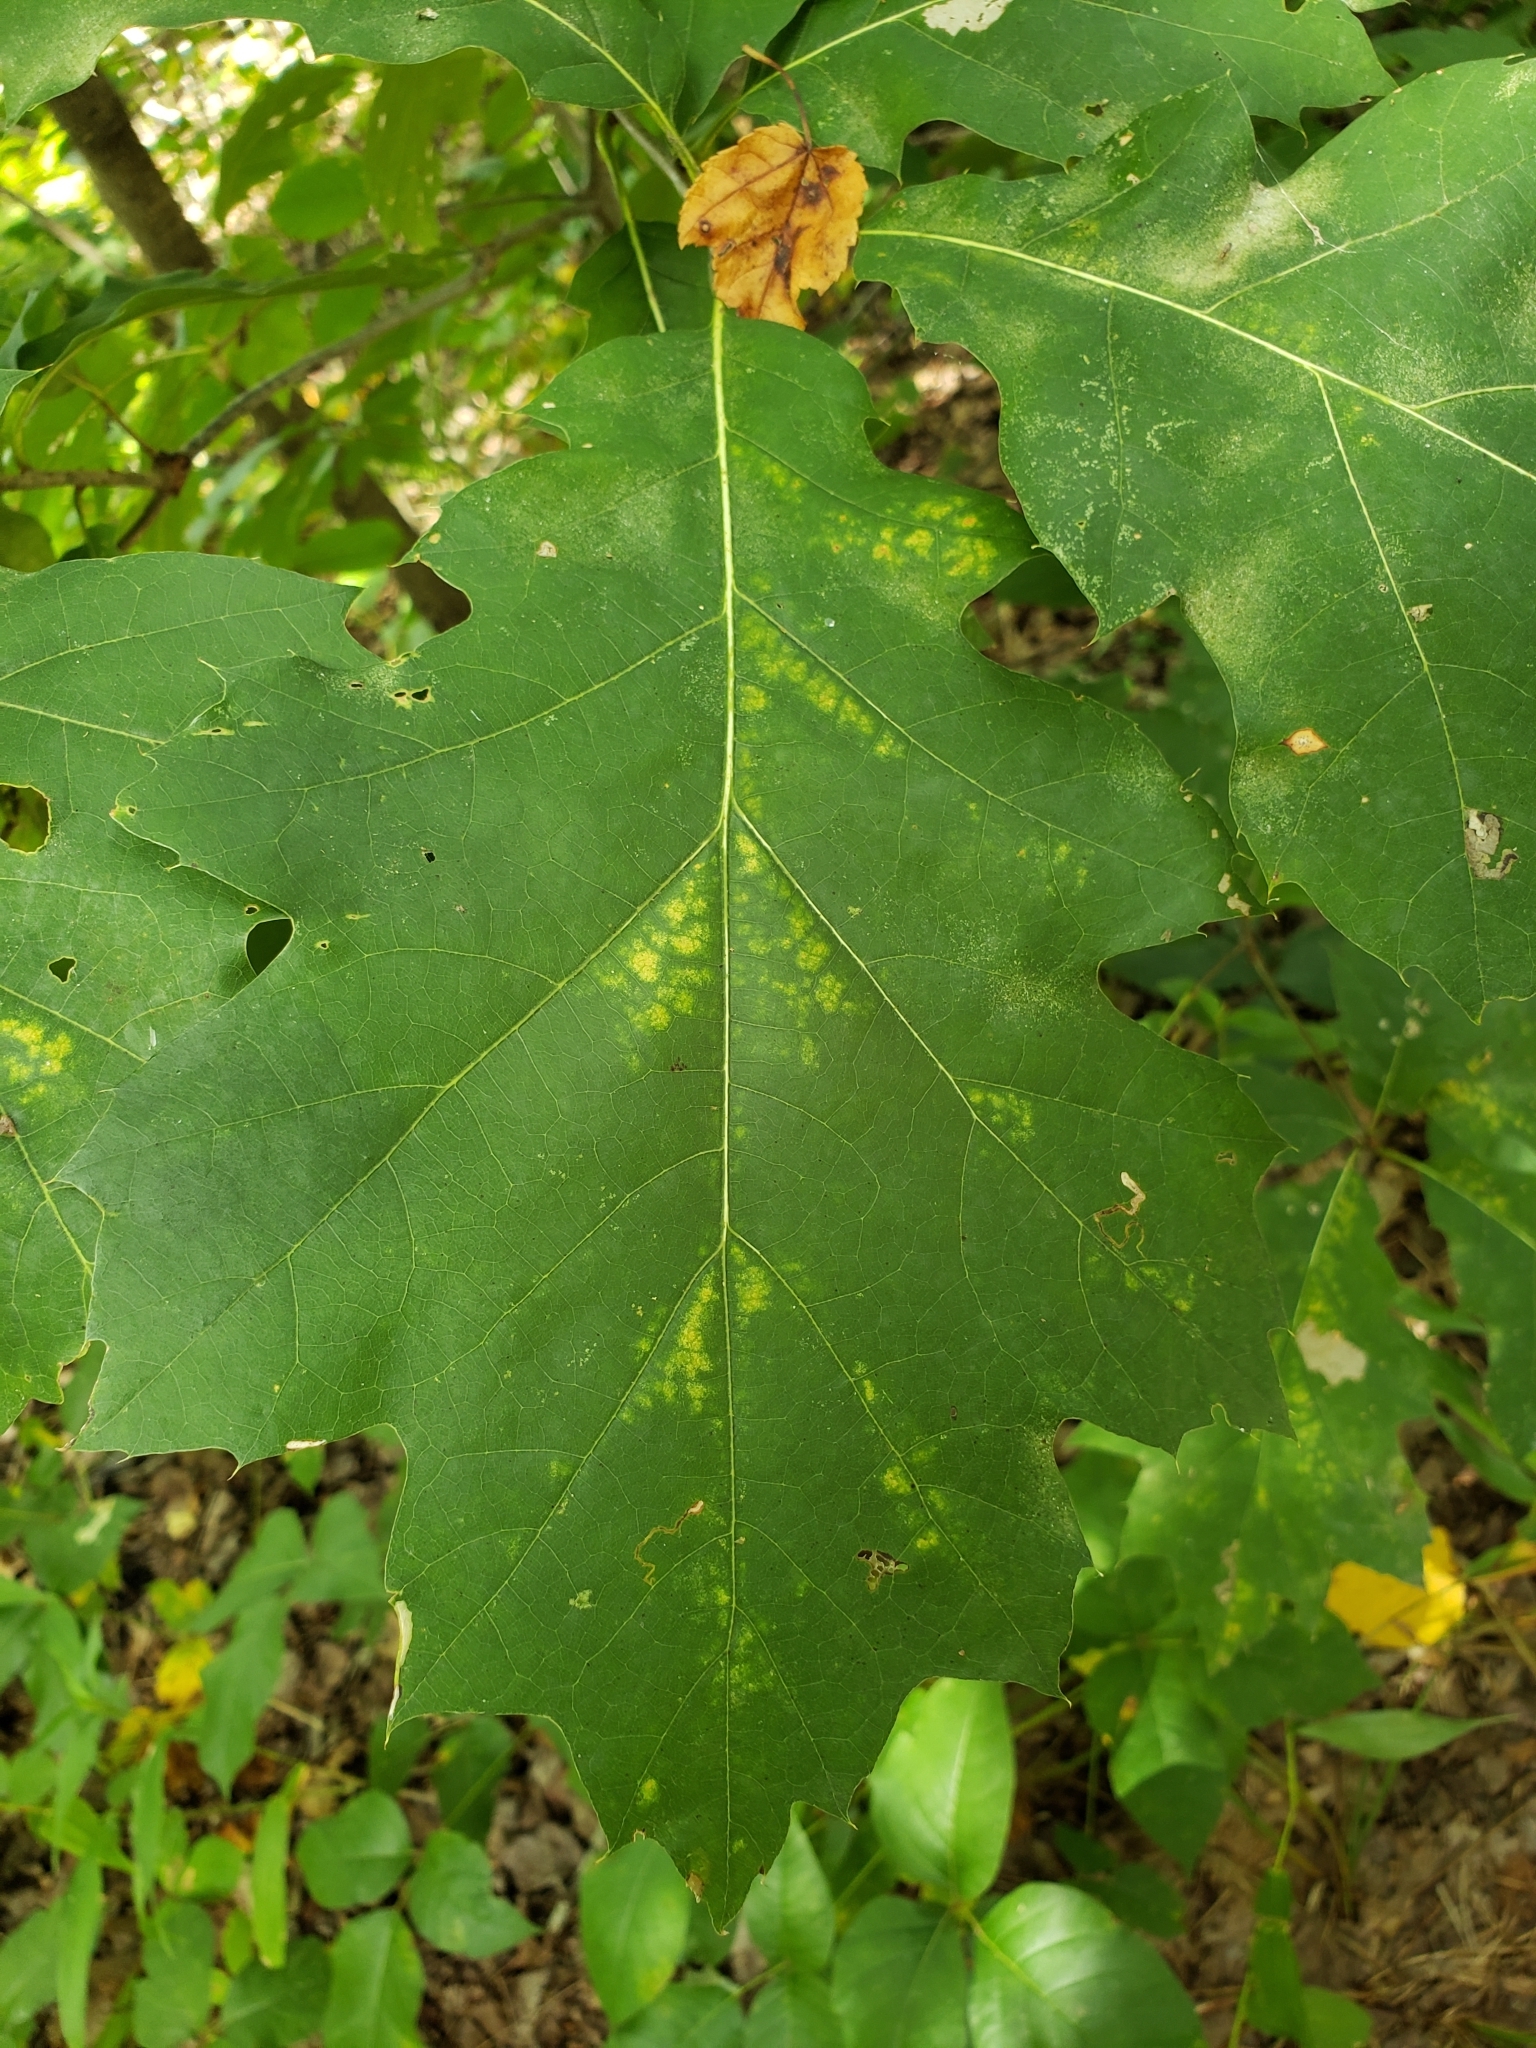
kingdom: Plantae
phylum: Tracheophyta
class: Magnoliopsida
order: Fagales
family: Fagaceae
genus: Quercus
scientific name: Quercus rubra
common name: Red oak
